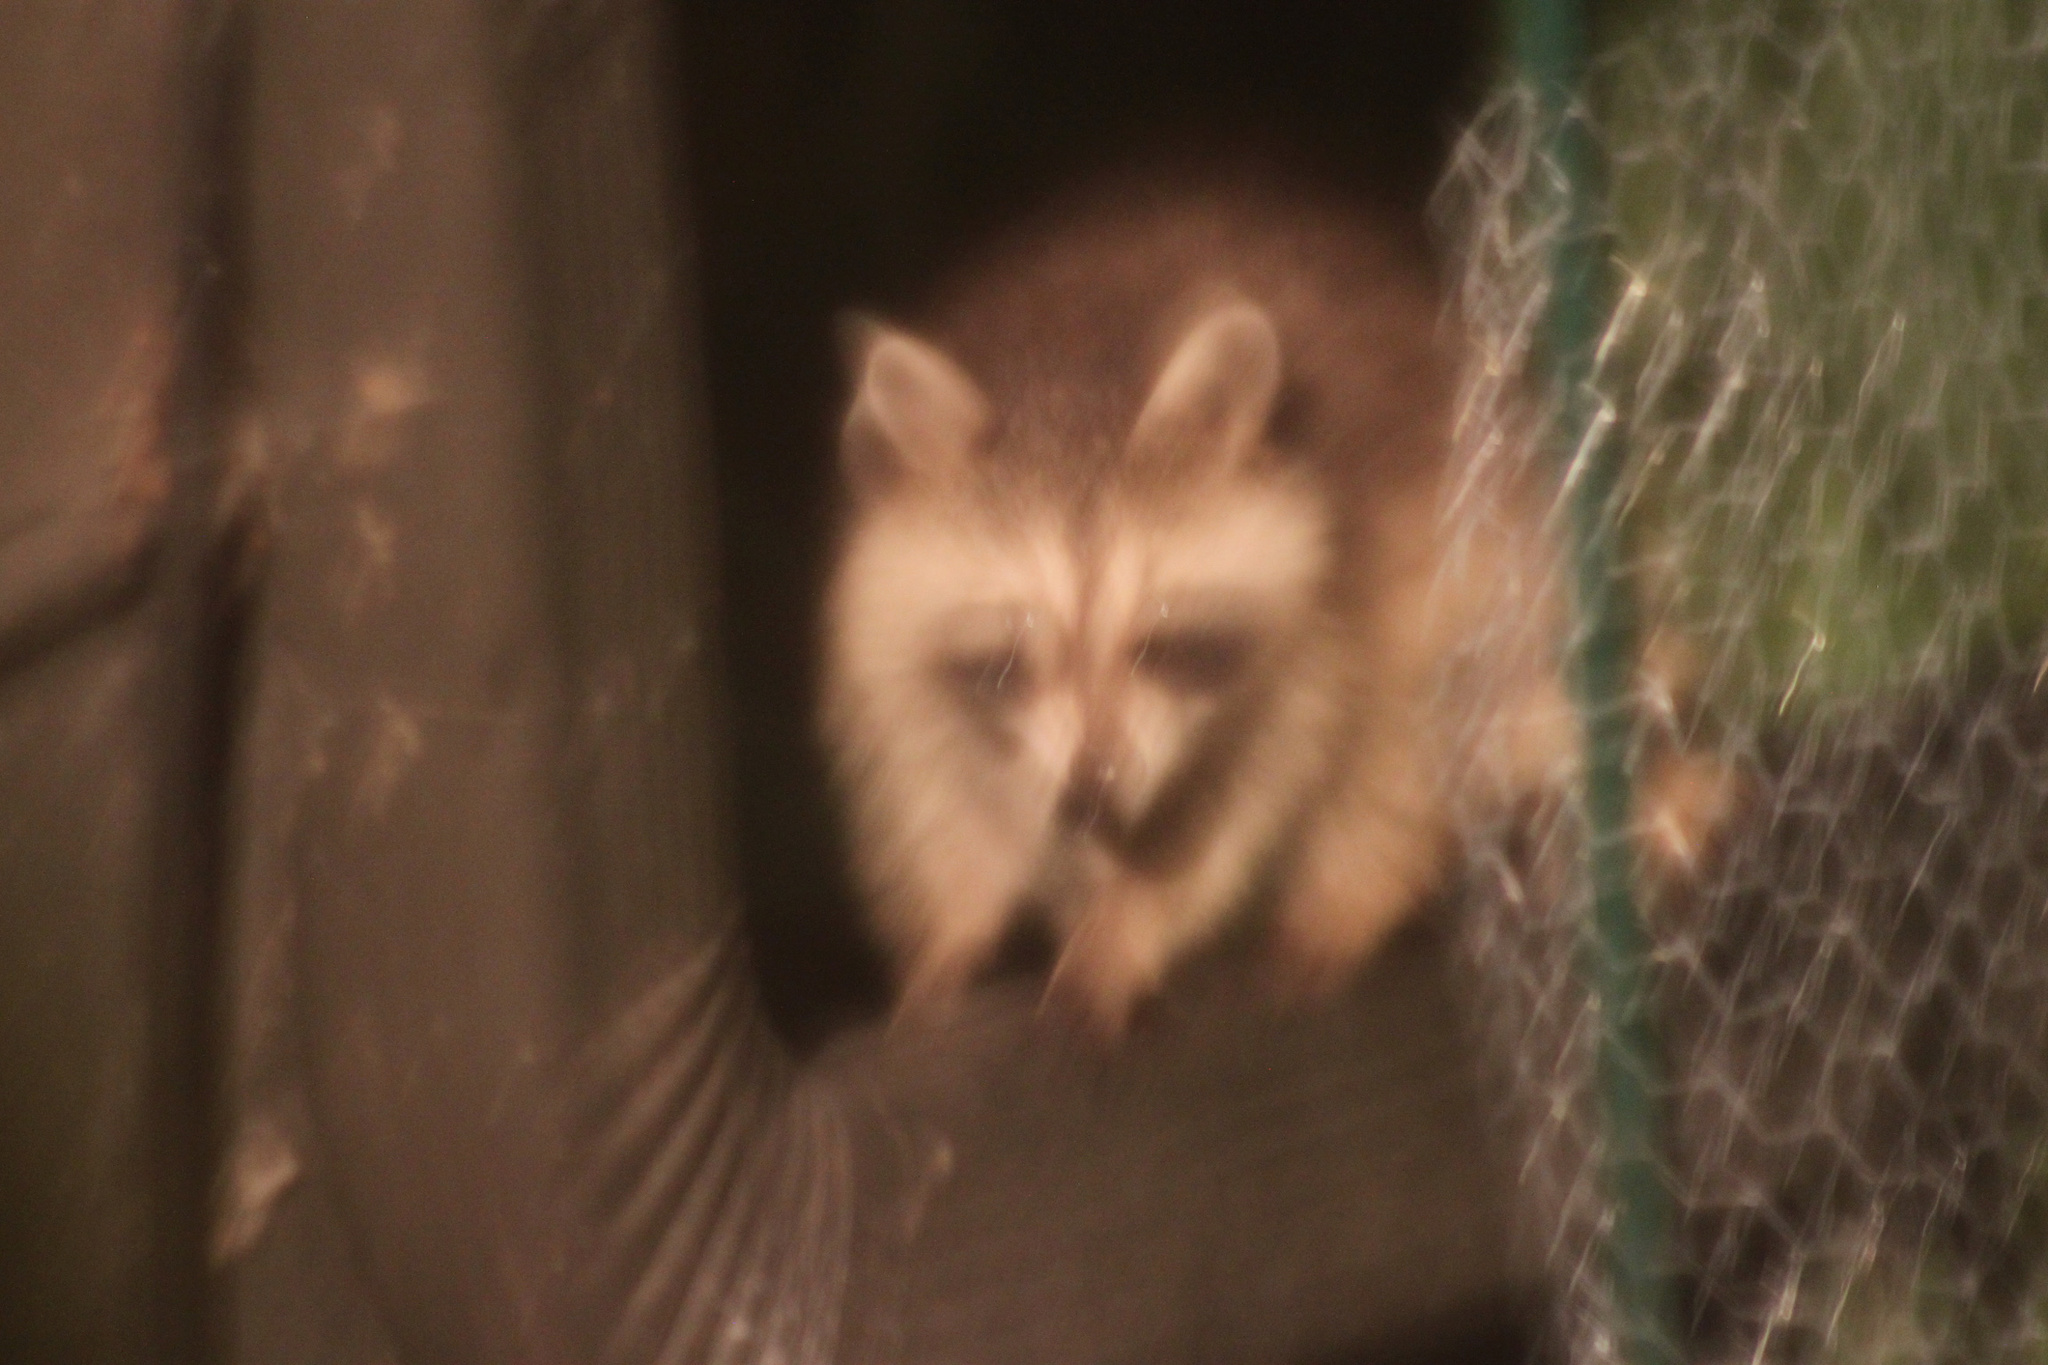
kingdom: Animalia
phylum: Chordata
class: Mammalia
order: Carnivora
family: Procyonidae
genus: Procyon
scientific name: Procyon lotor
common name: Raccoon
